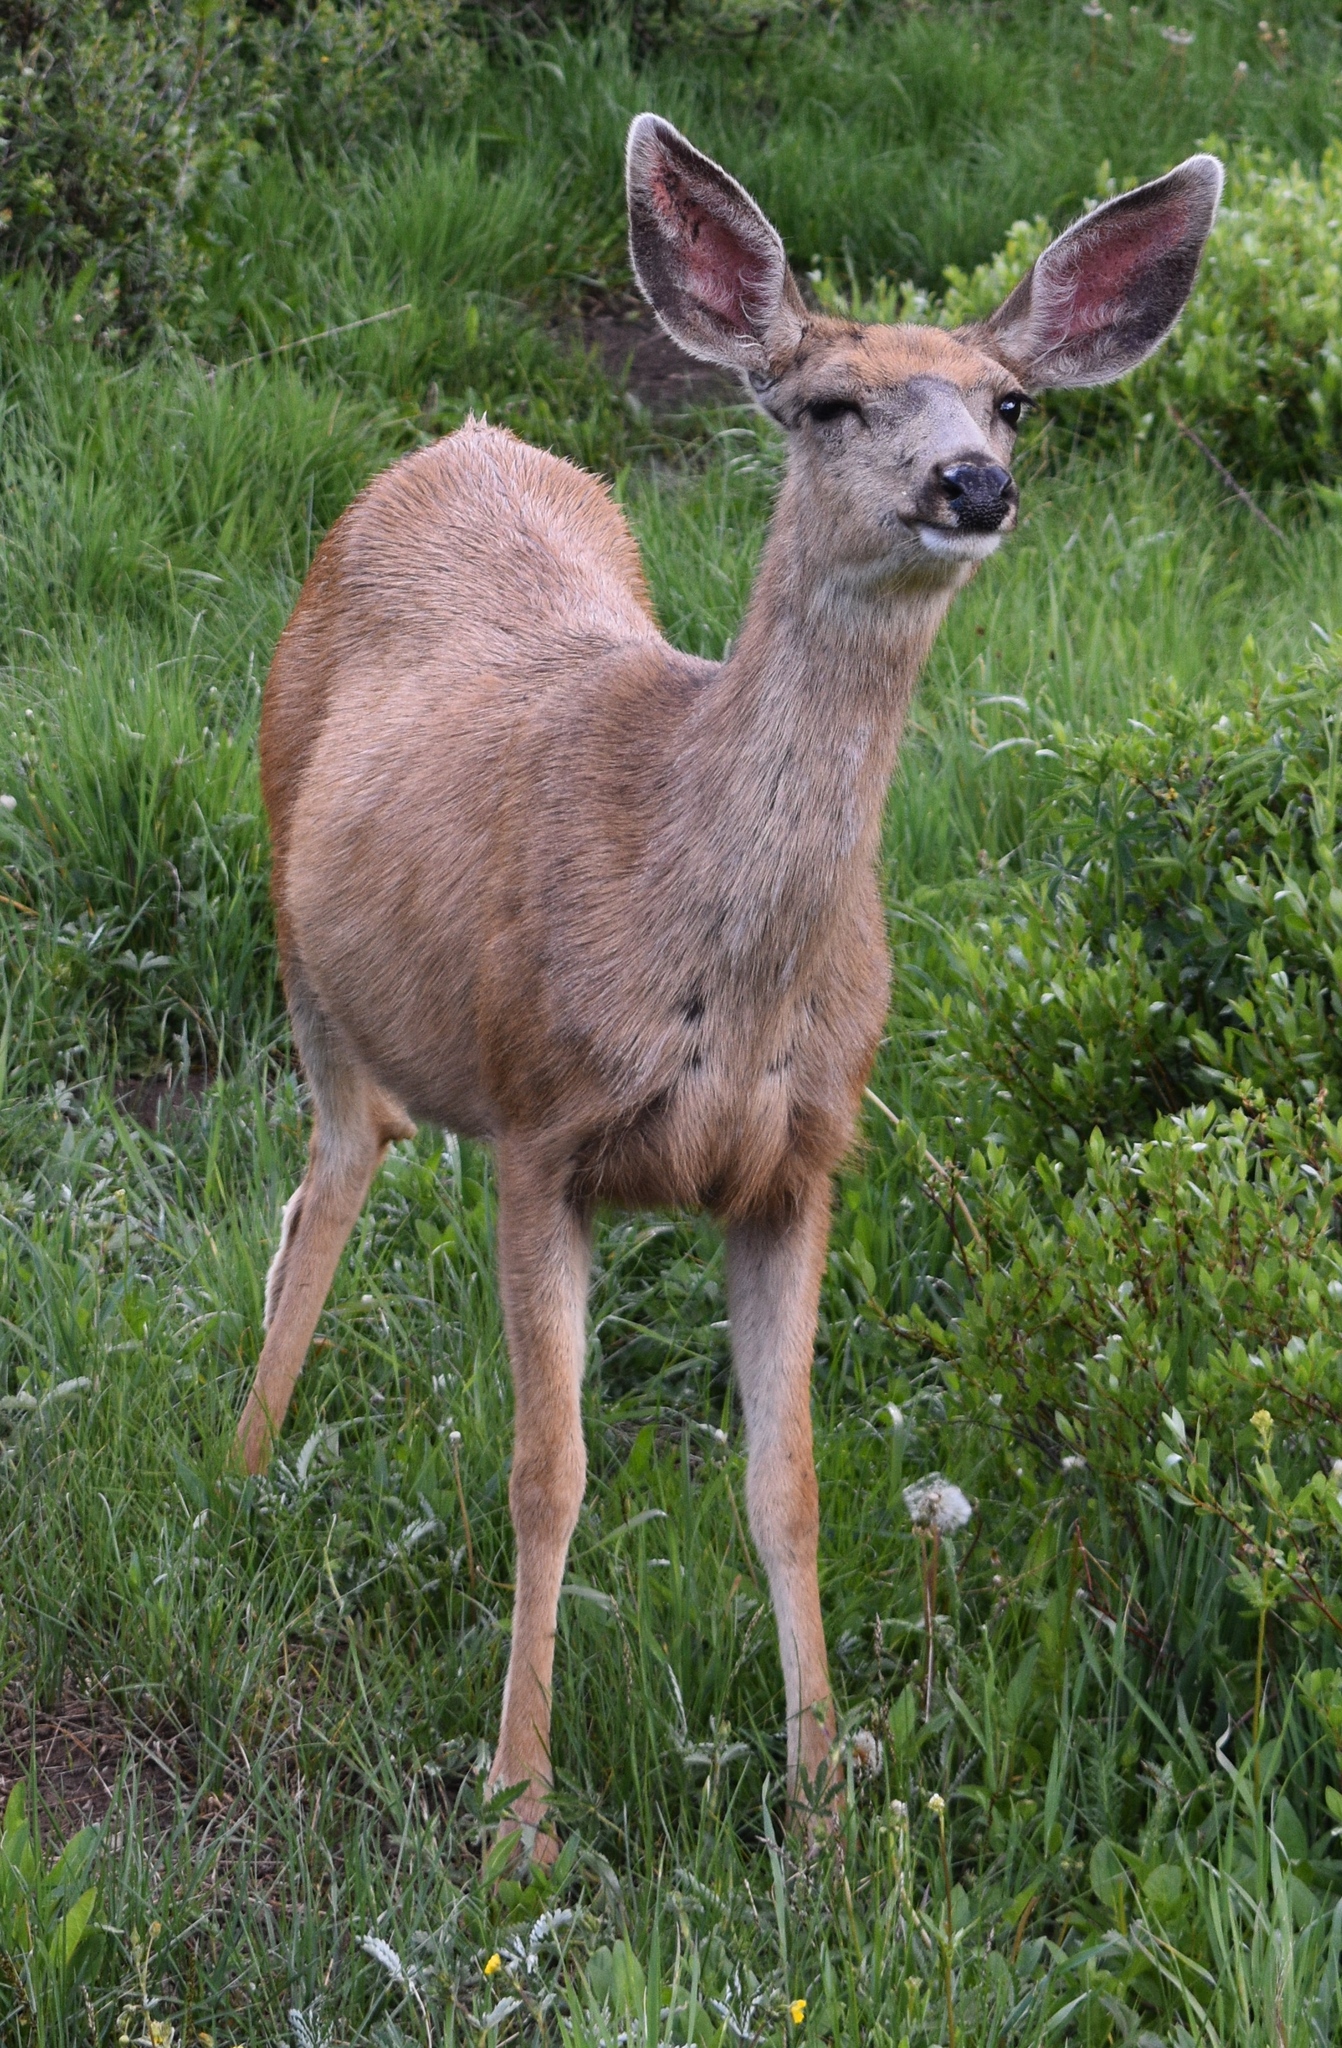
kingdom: Animalia
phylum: Chordata
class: Mammalia
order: Artiodactyla
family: Cervidae
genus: Odocoileus
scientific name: Odocoileus hemionus
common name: Mule deer
